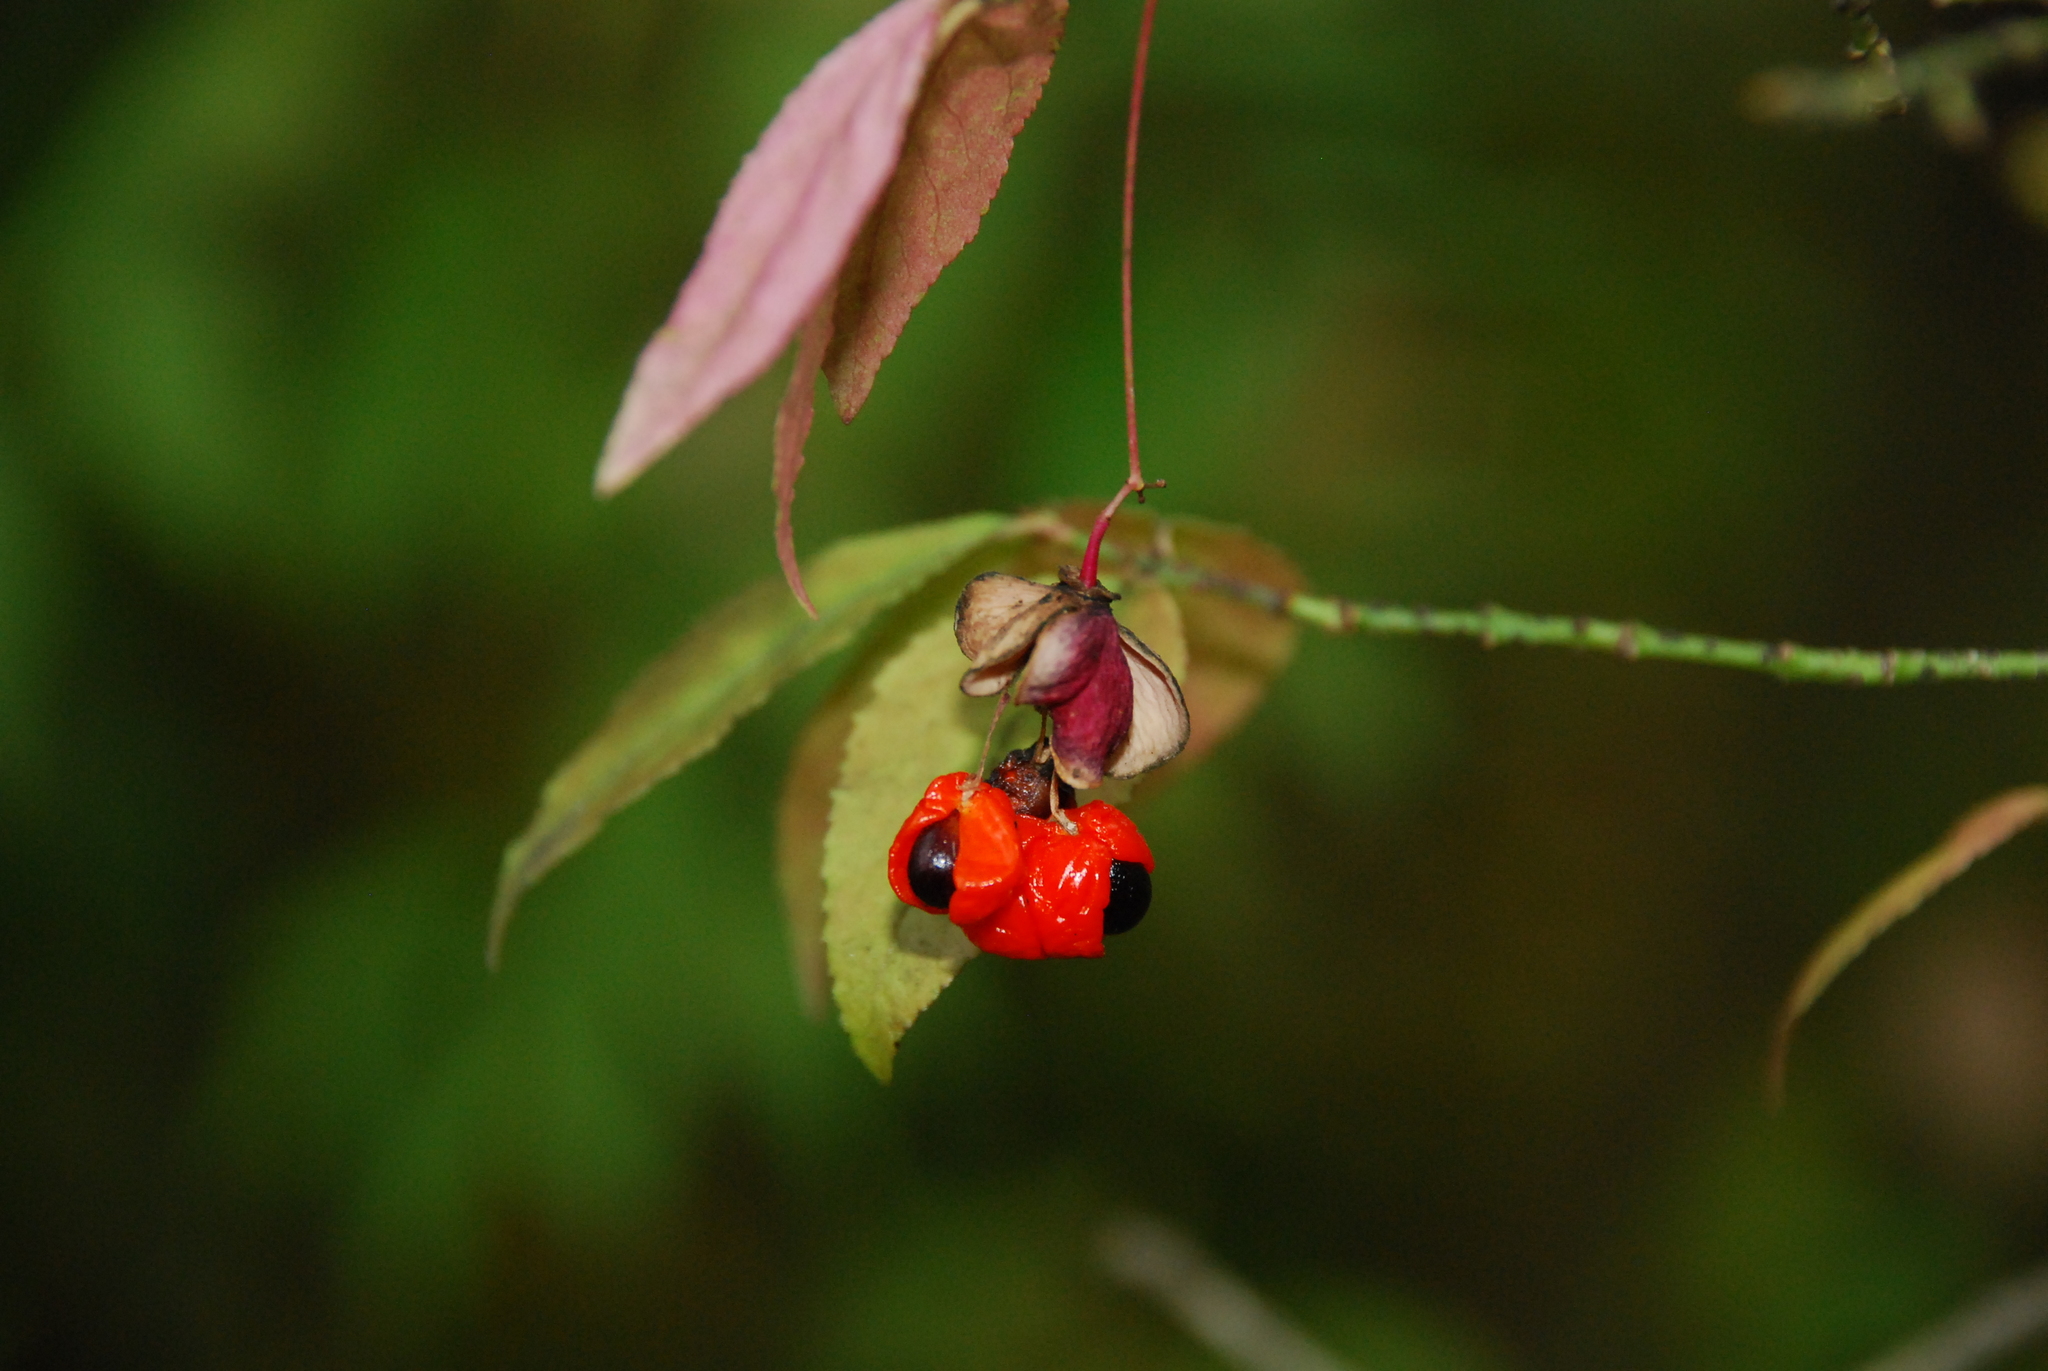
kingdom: Plantae
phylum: Tracheophyta
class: Magnoliopsida
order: Celastrales
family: Celastraceae
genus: Euonymus
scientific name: Euonymus verrucosus
